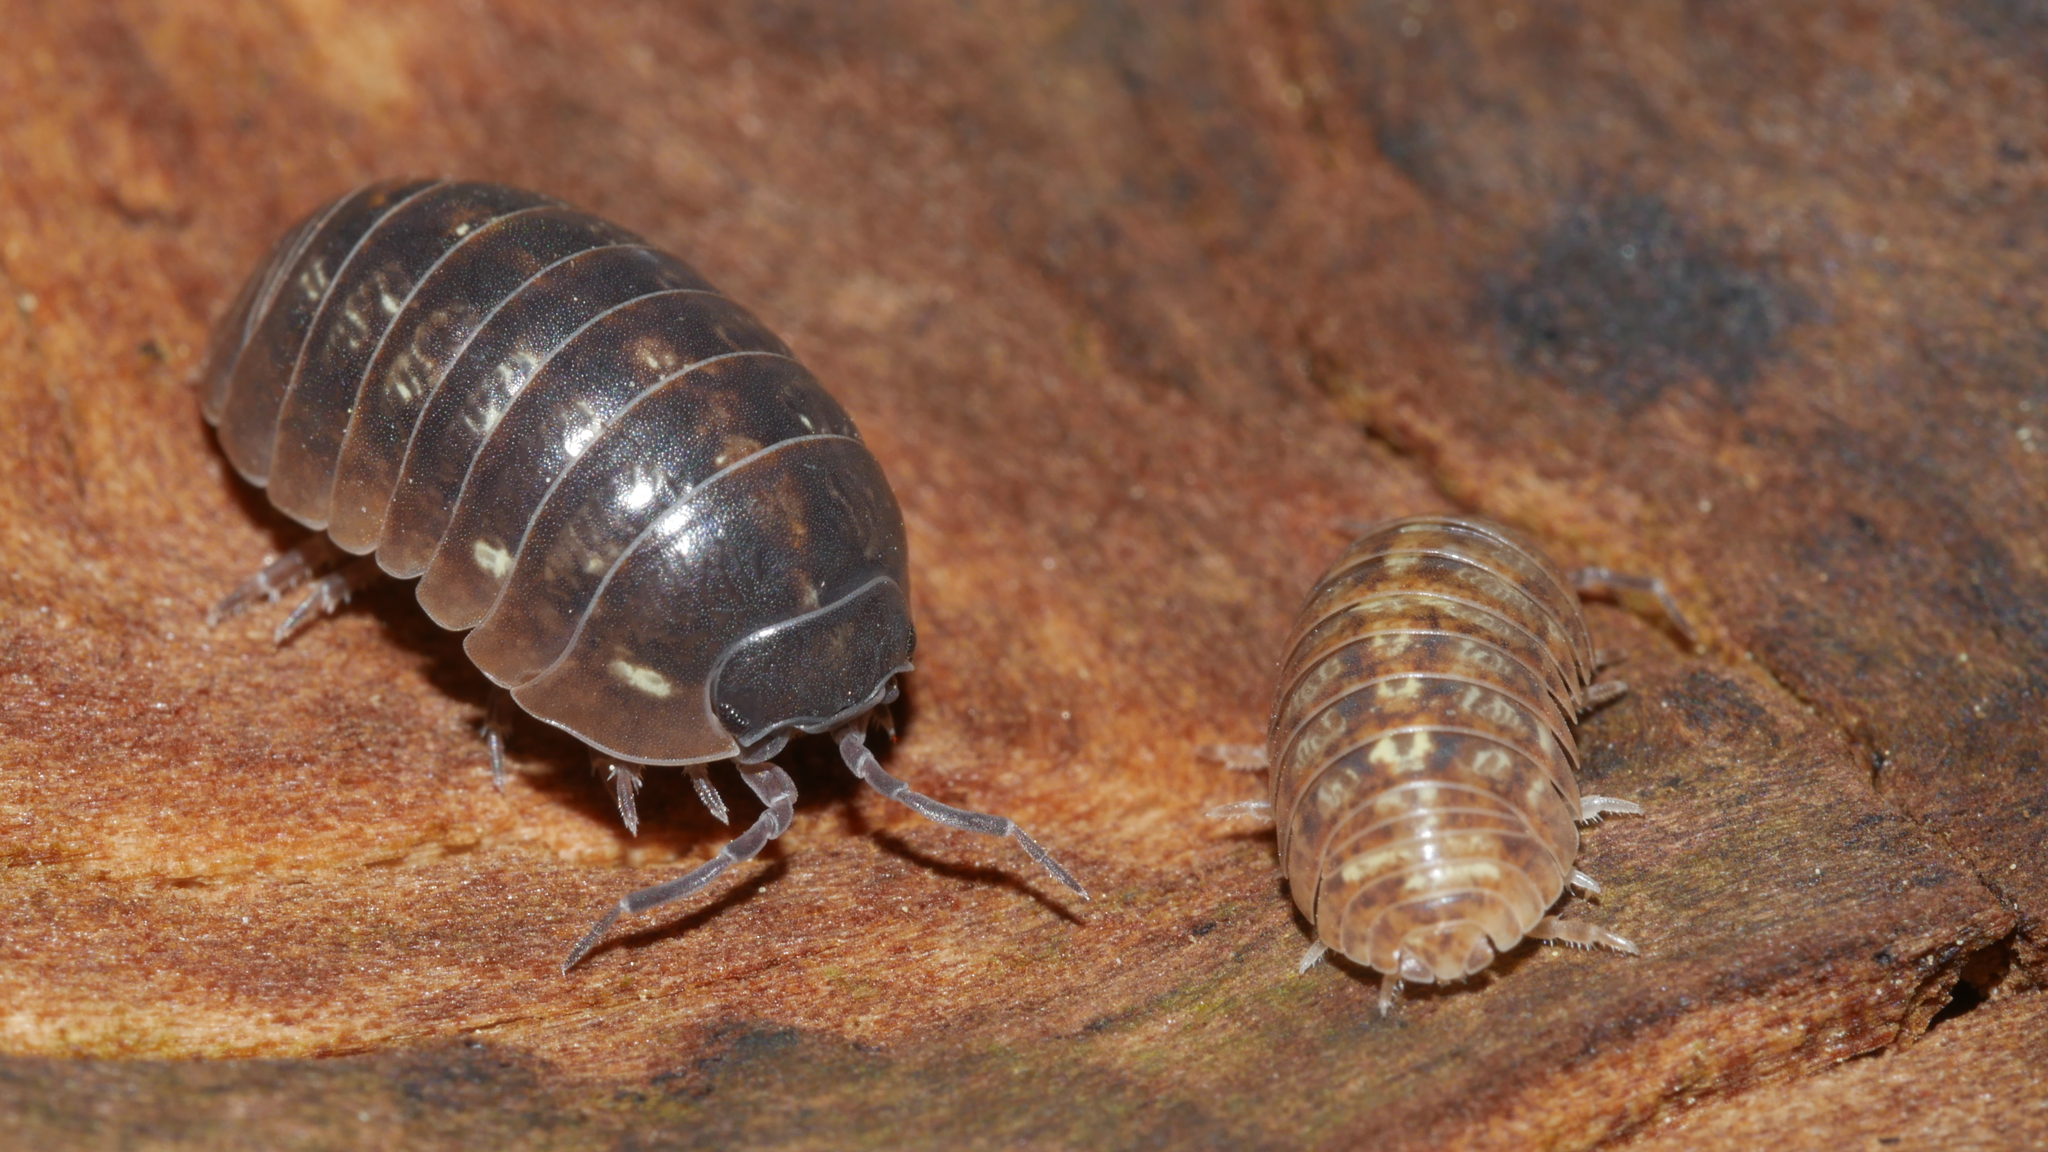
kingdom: Animalia
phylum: Arthropoda
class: Malacostraca
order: Isopoda
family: Armadillidiidae
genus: Armadillidium
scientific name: Armadillidium vulgare
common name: Common pill woodlouse
